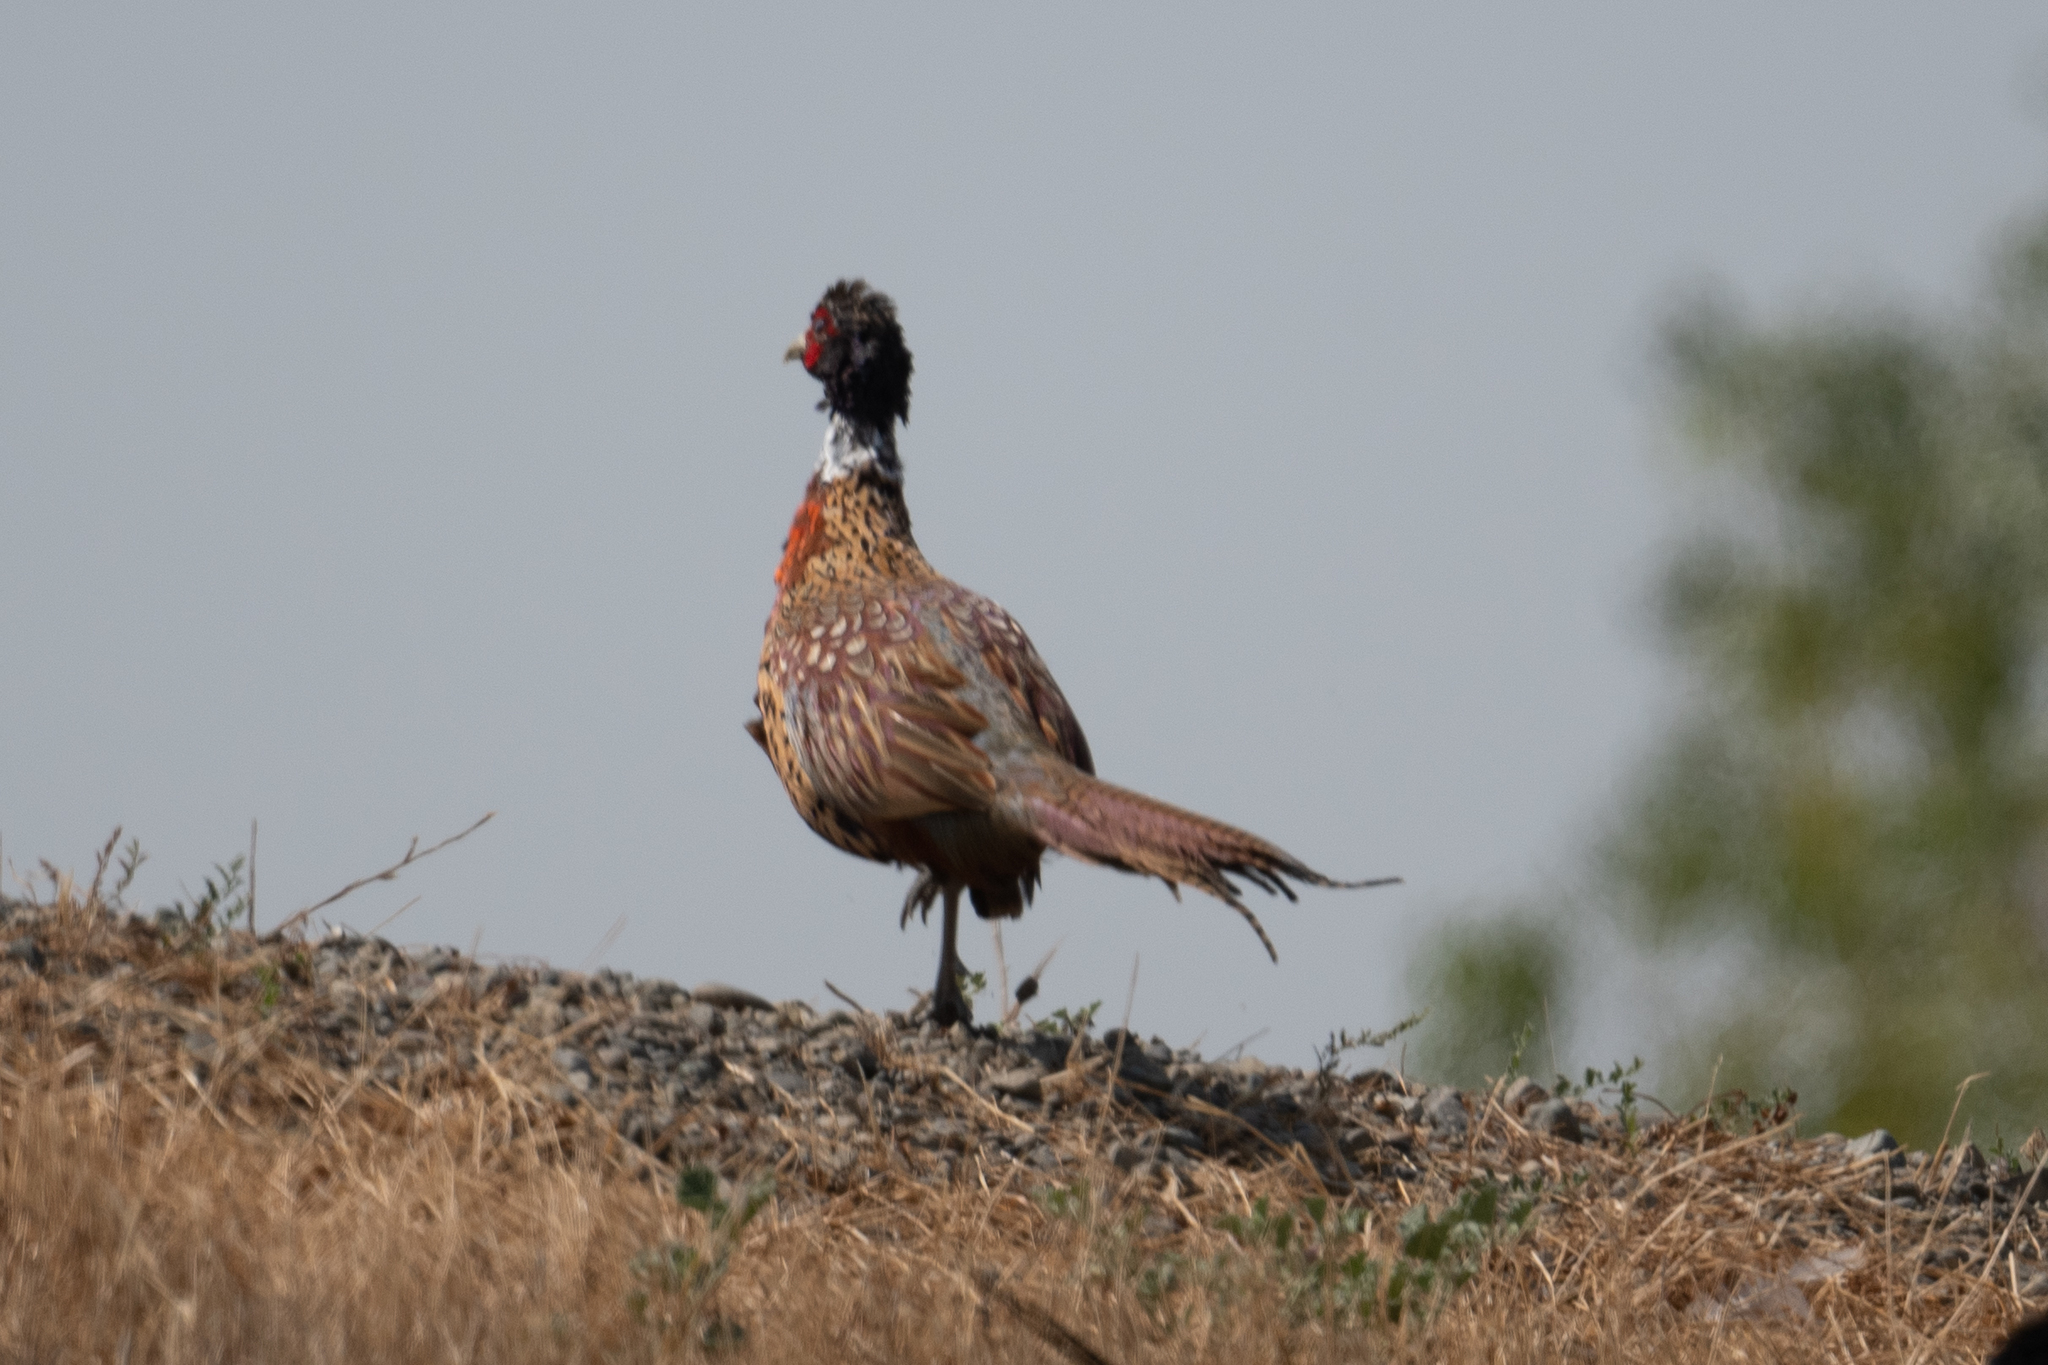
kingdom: Animalia
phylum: Chordata
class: Aves
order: Galliformes
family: Phasianidae
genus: Phasianus
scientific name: Phasianus colchicus
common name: Common pheasant
